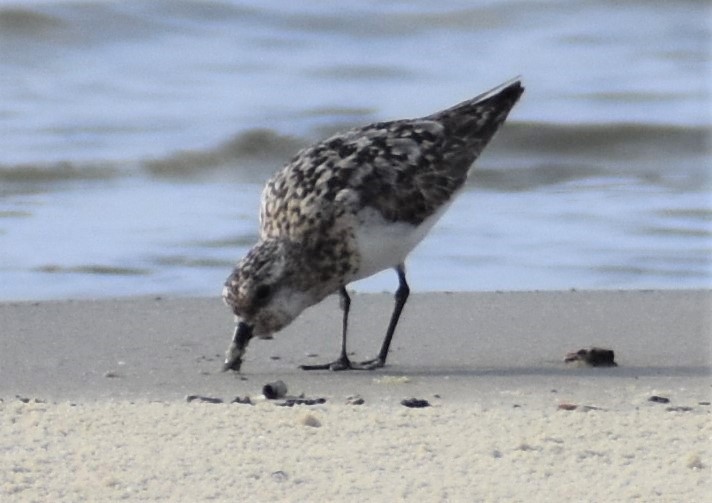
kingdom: Animalia
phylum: Chordata
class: Aves
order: Charadriiformes
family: Scolopacidae
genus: Calidris
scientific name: Calidris alba
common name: Sanderling
